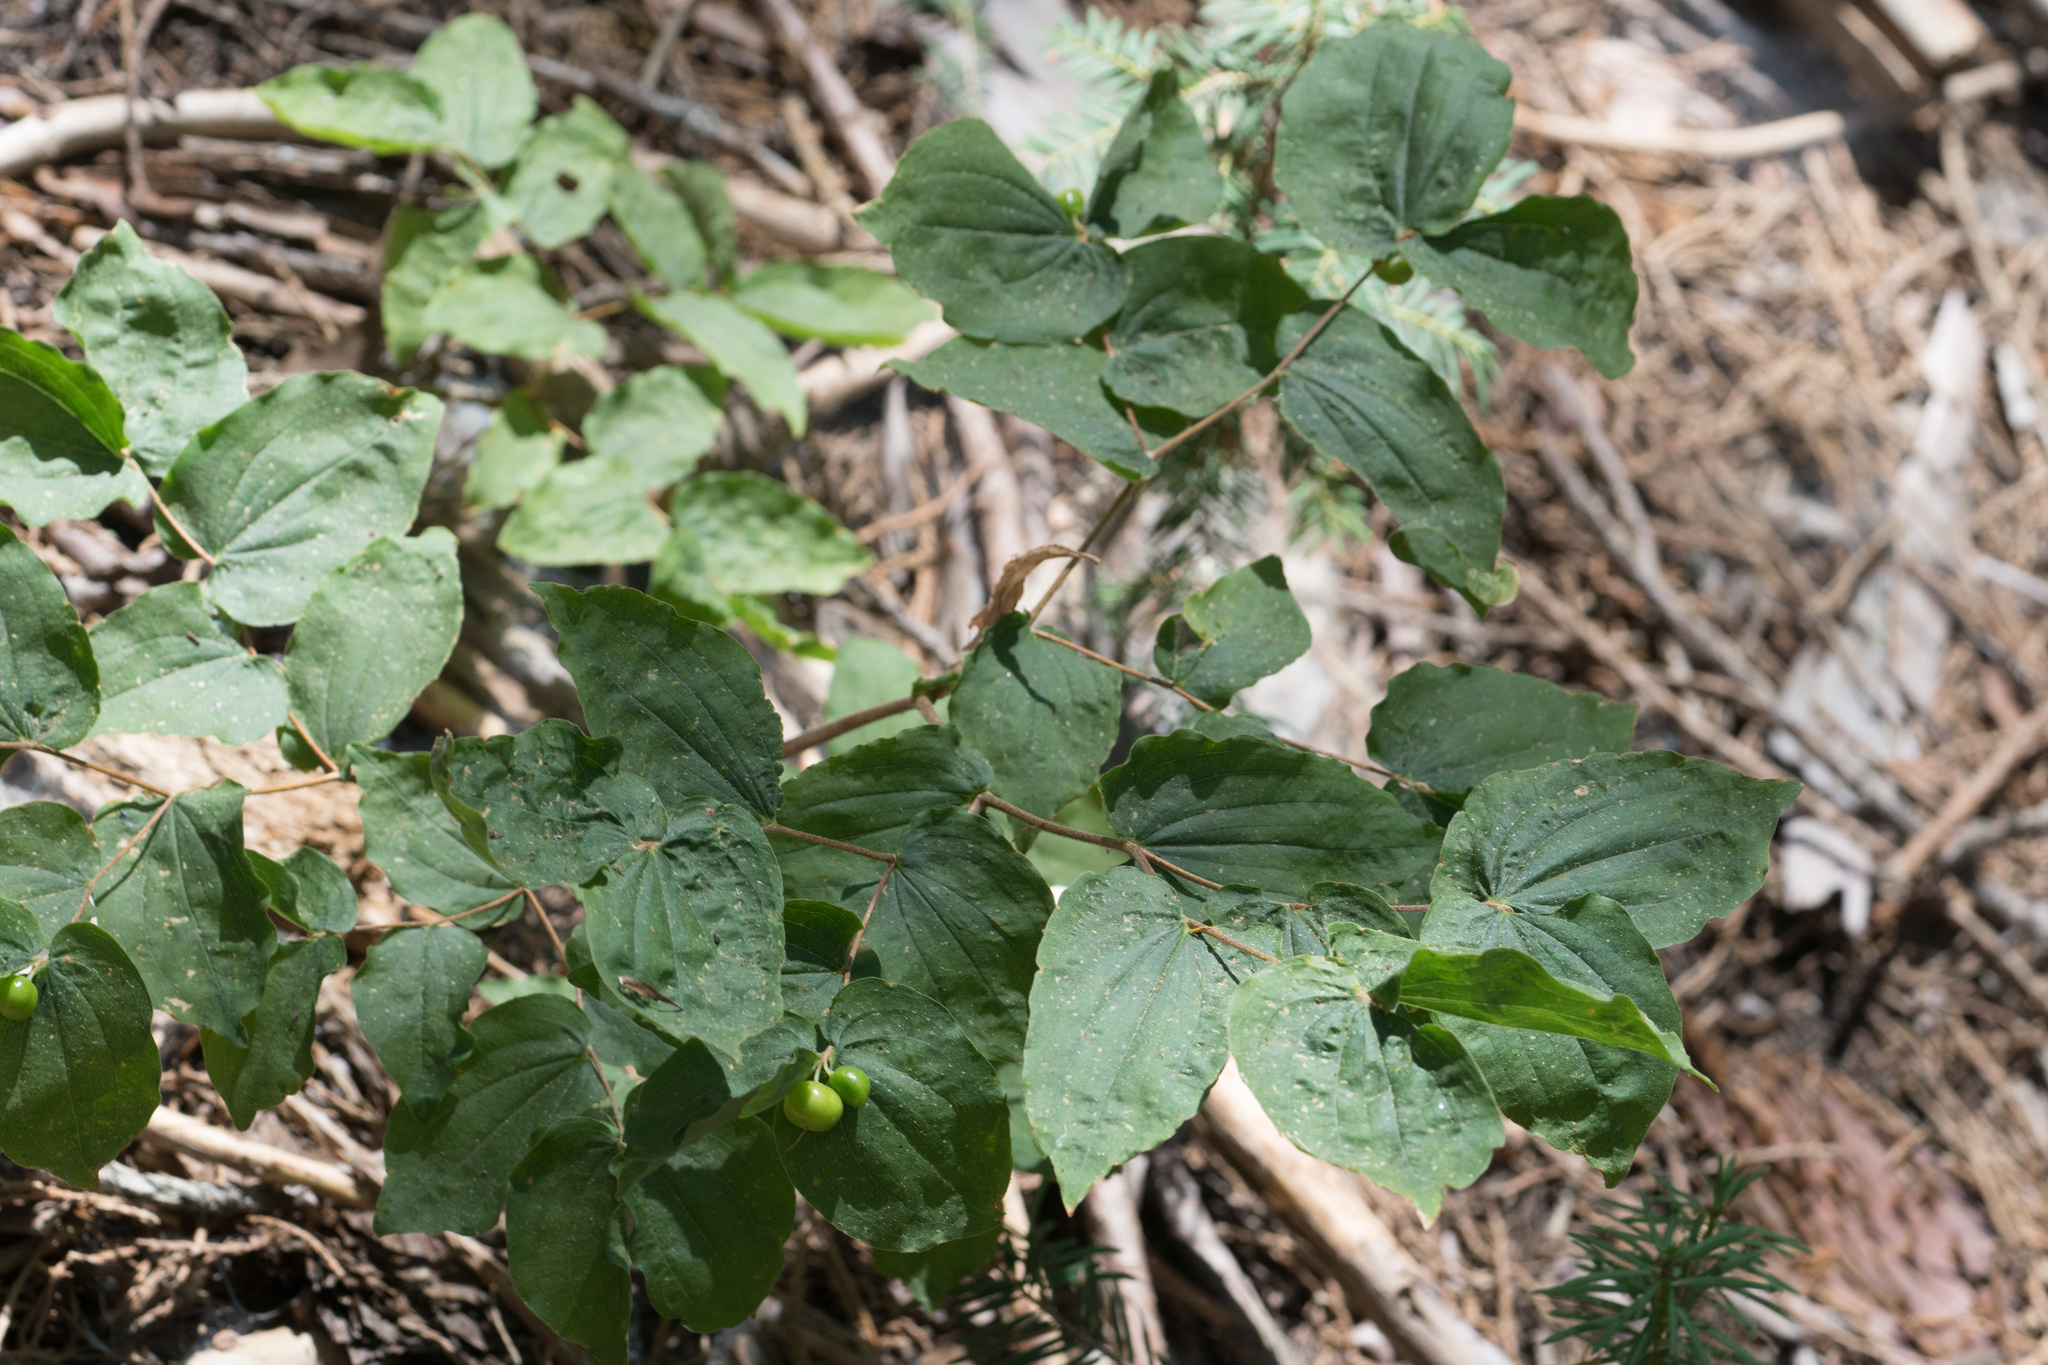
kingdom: Plantae
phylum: Tracheophyta
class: Liliopsida
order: Liliales
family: Liliaceae
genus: Prosartes
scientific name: Prosartes hookeri
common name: Fairy-bells
